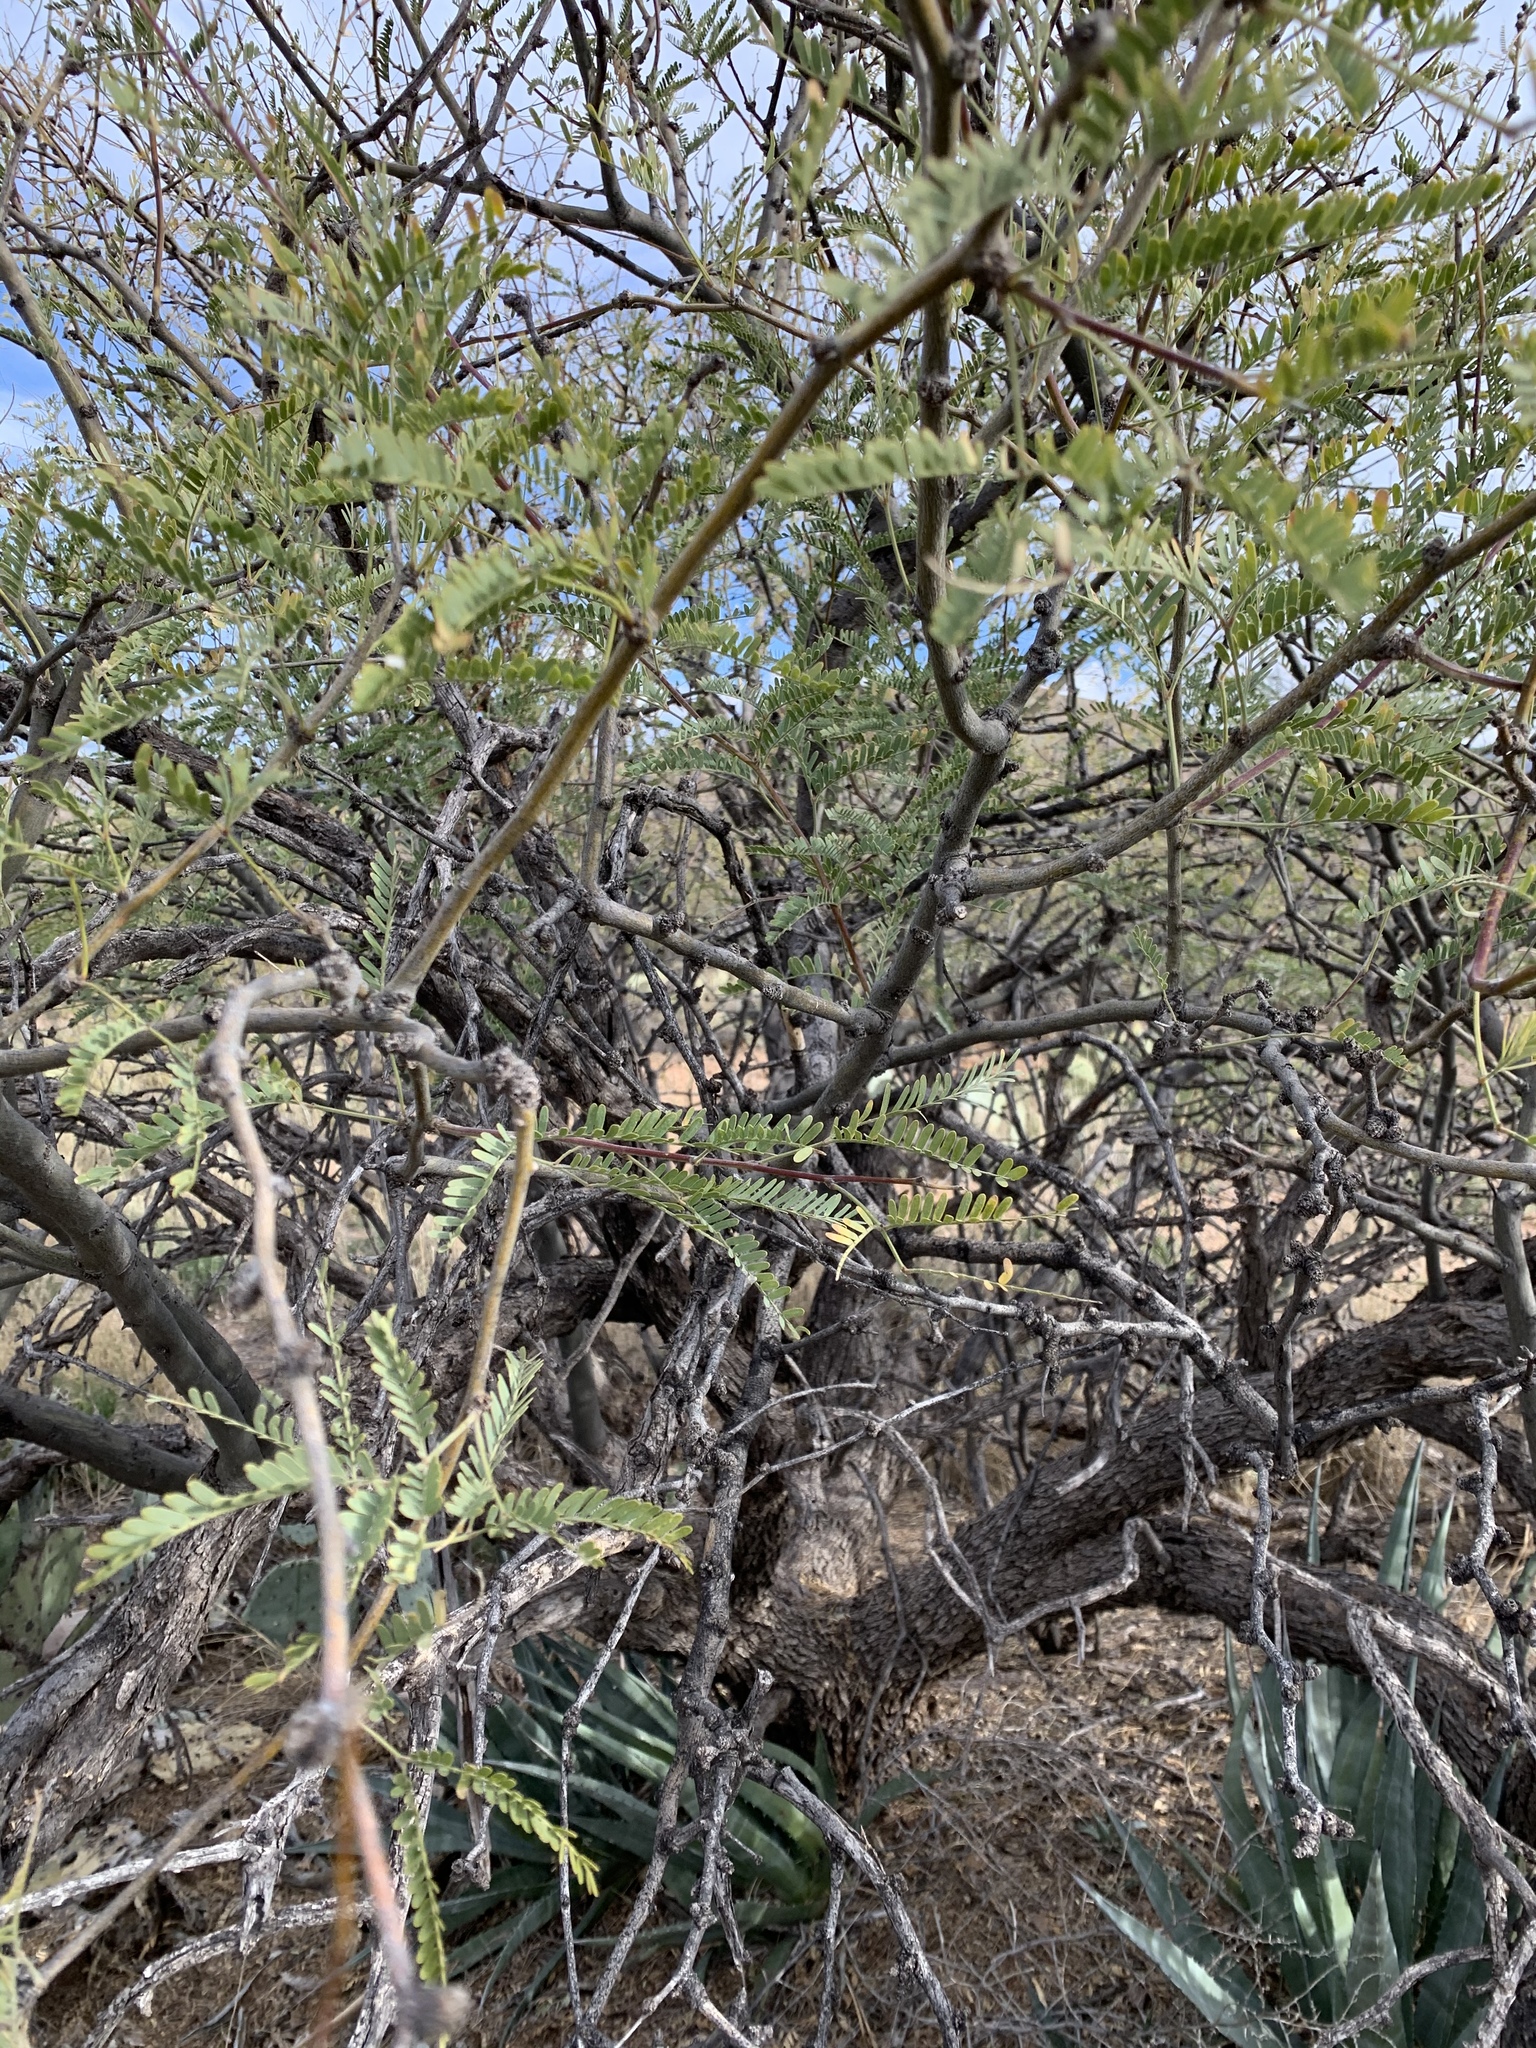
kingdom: Plantae
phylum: Tracheophyta
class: Magnoliopsida
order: Fabales
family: Fabaceae
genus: Prosopis
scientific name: Prosopis velutina
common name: Velvet mesquite
